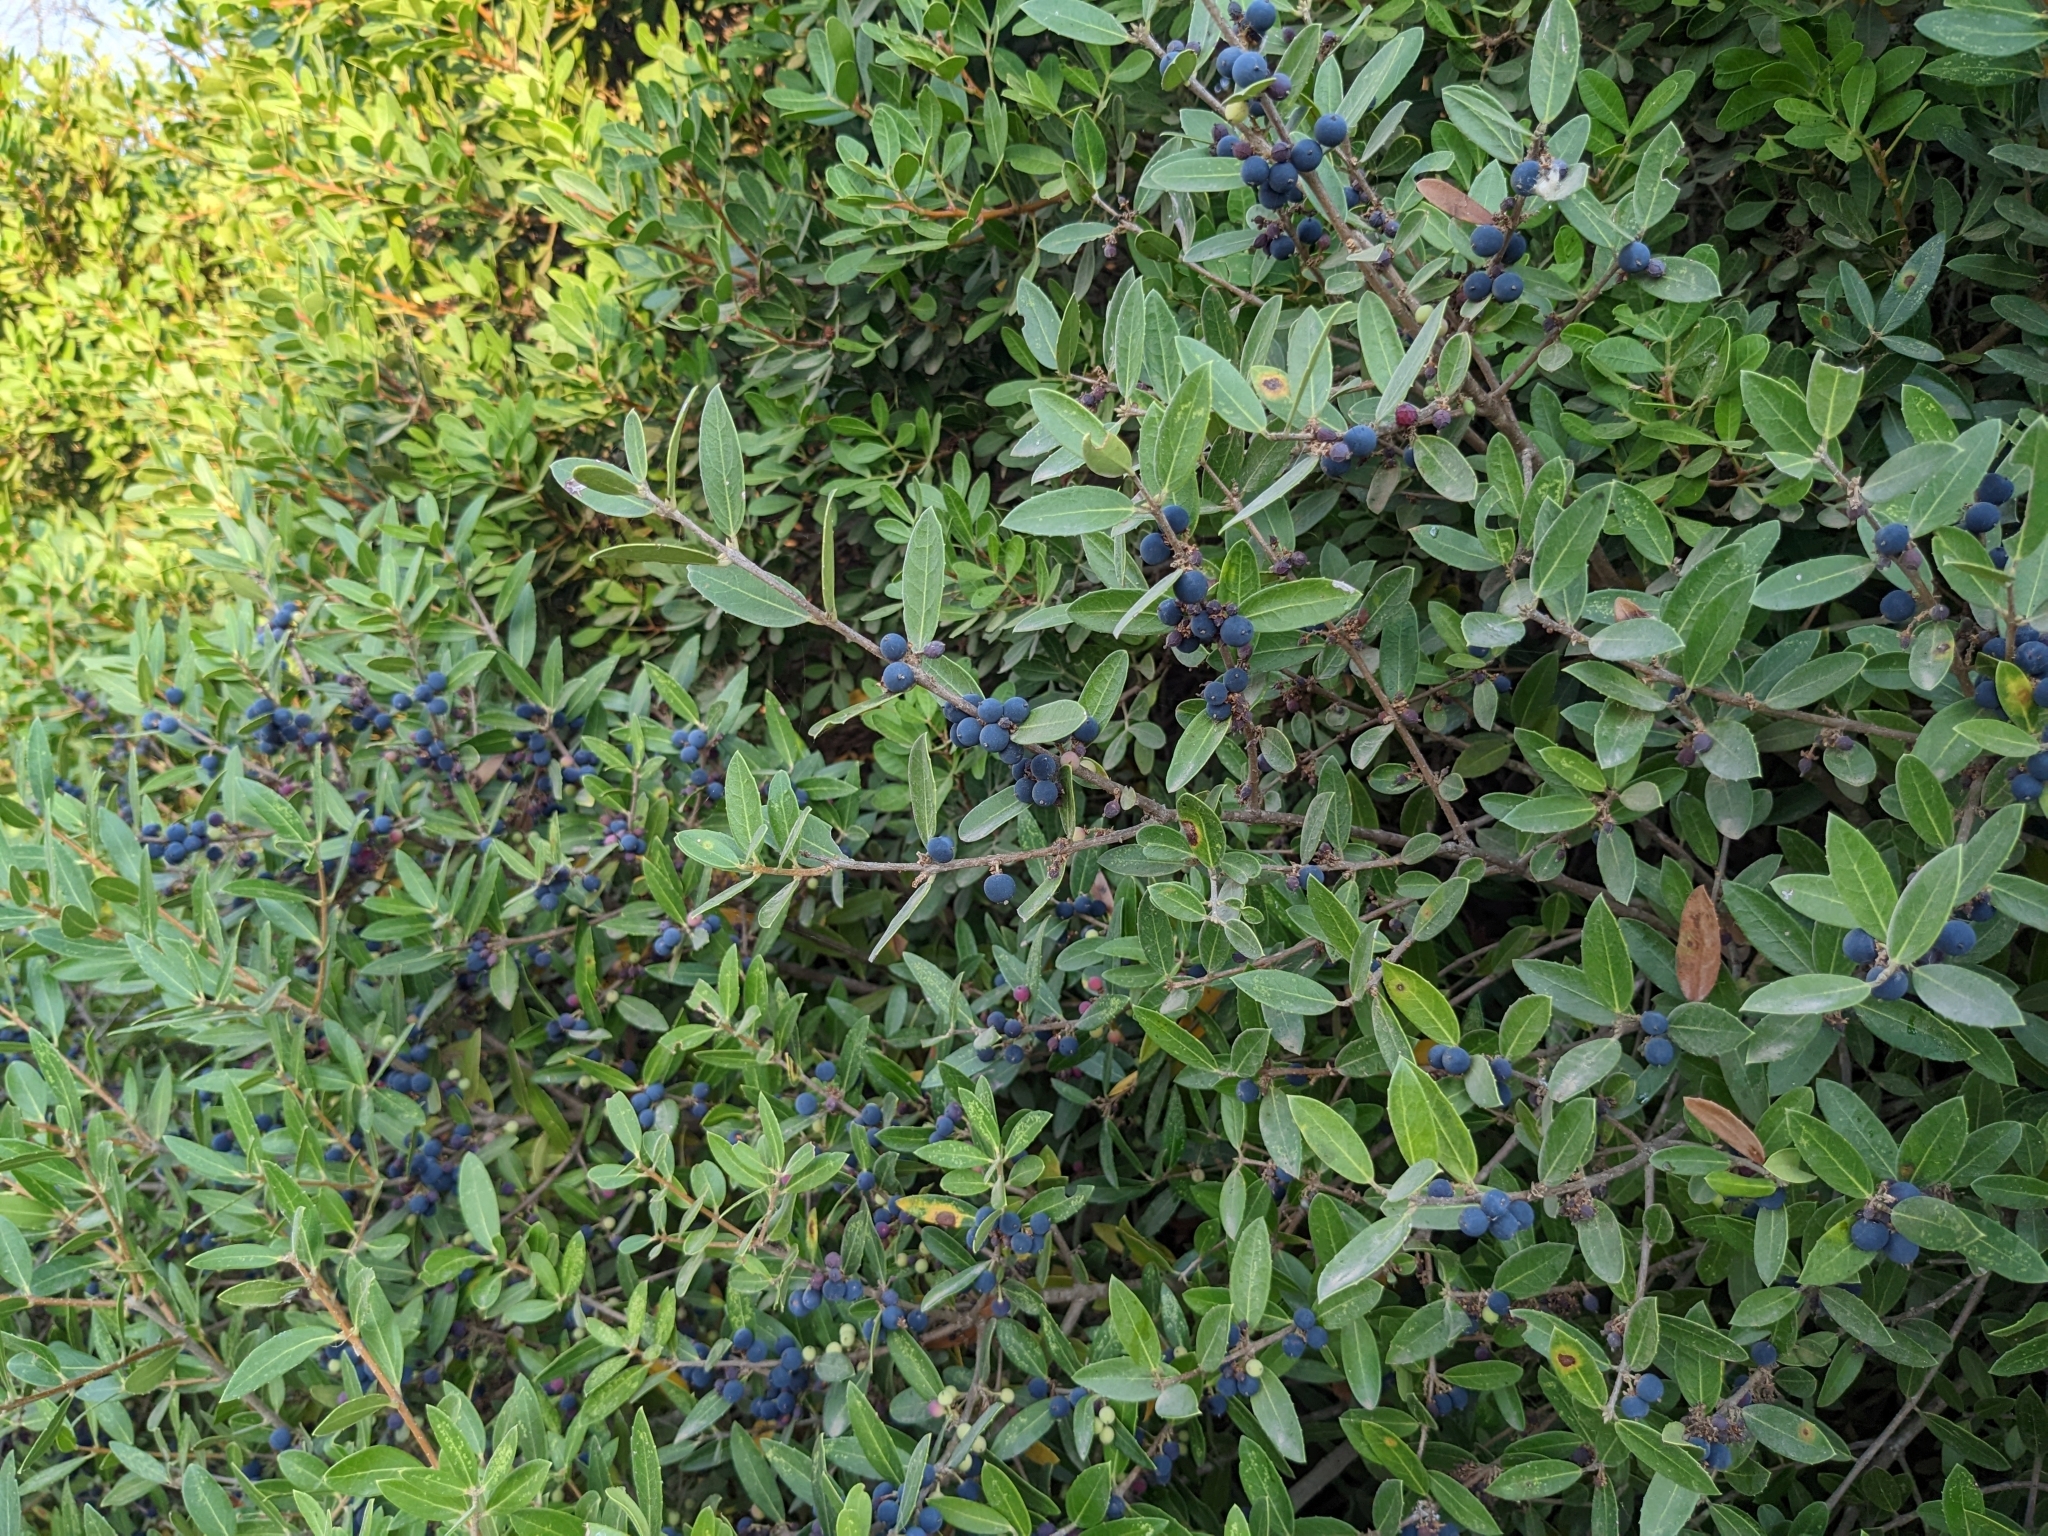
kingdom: Plantae
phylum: Tracheophyta
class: Magnoliopsida
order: Lamiales
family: Oleaceae
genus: Phillyrea
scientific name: Phillyrea latifolia
